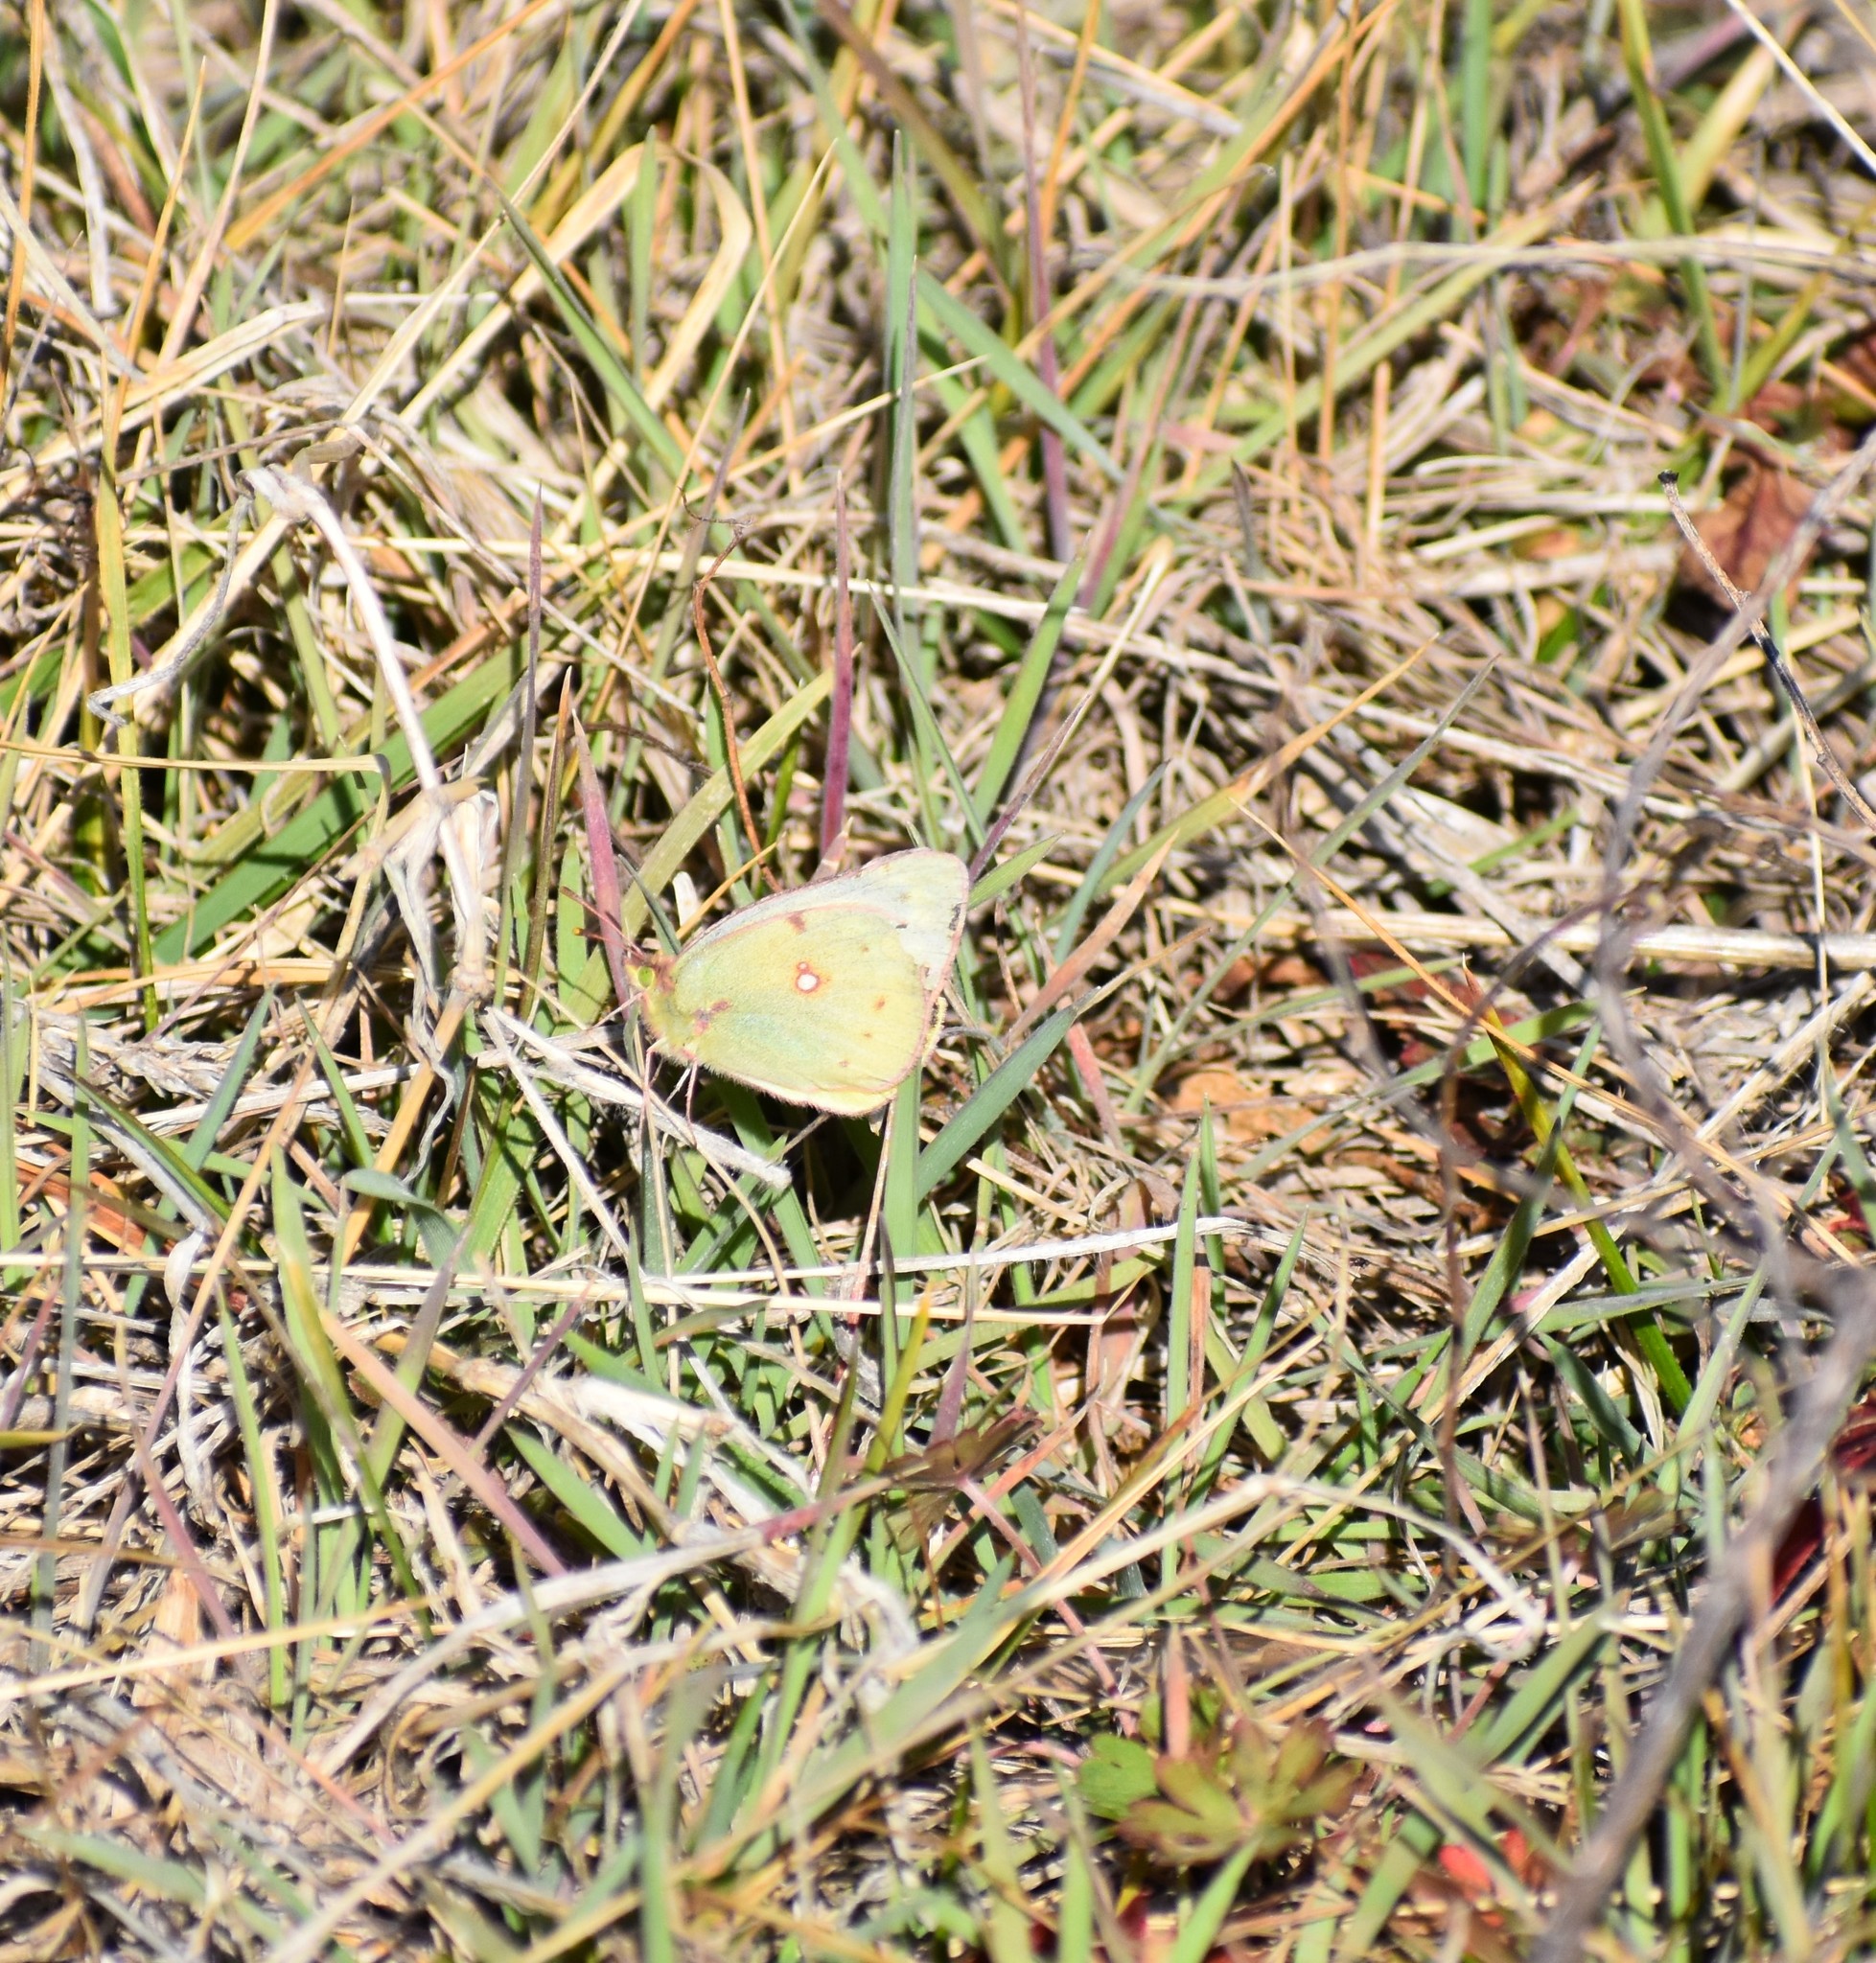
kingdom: Animalia
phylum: Arthropoda
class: Insecta
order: Lepidoptera
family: Pieridae
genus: Colias
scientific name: Colias eurytheme
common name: Alfalfa butterfly
